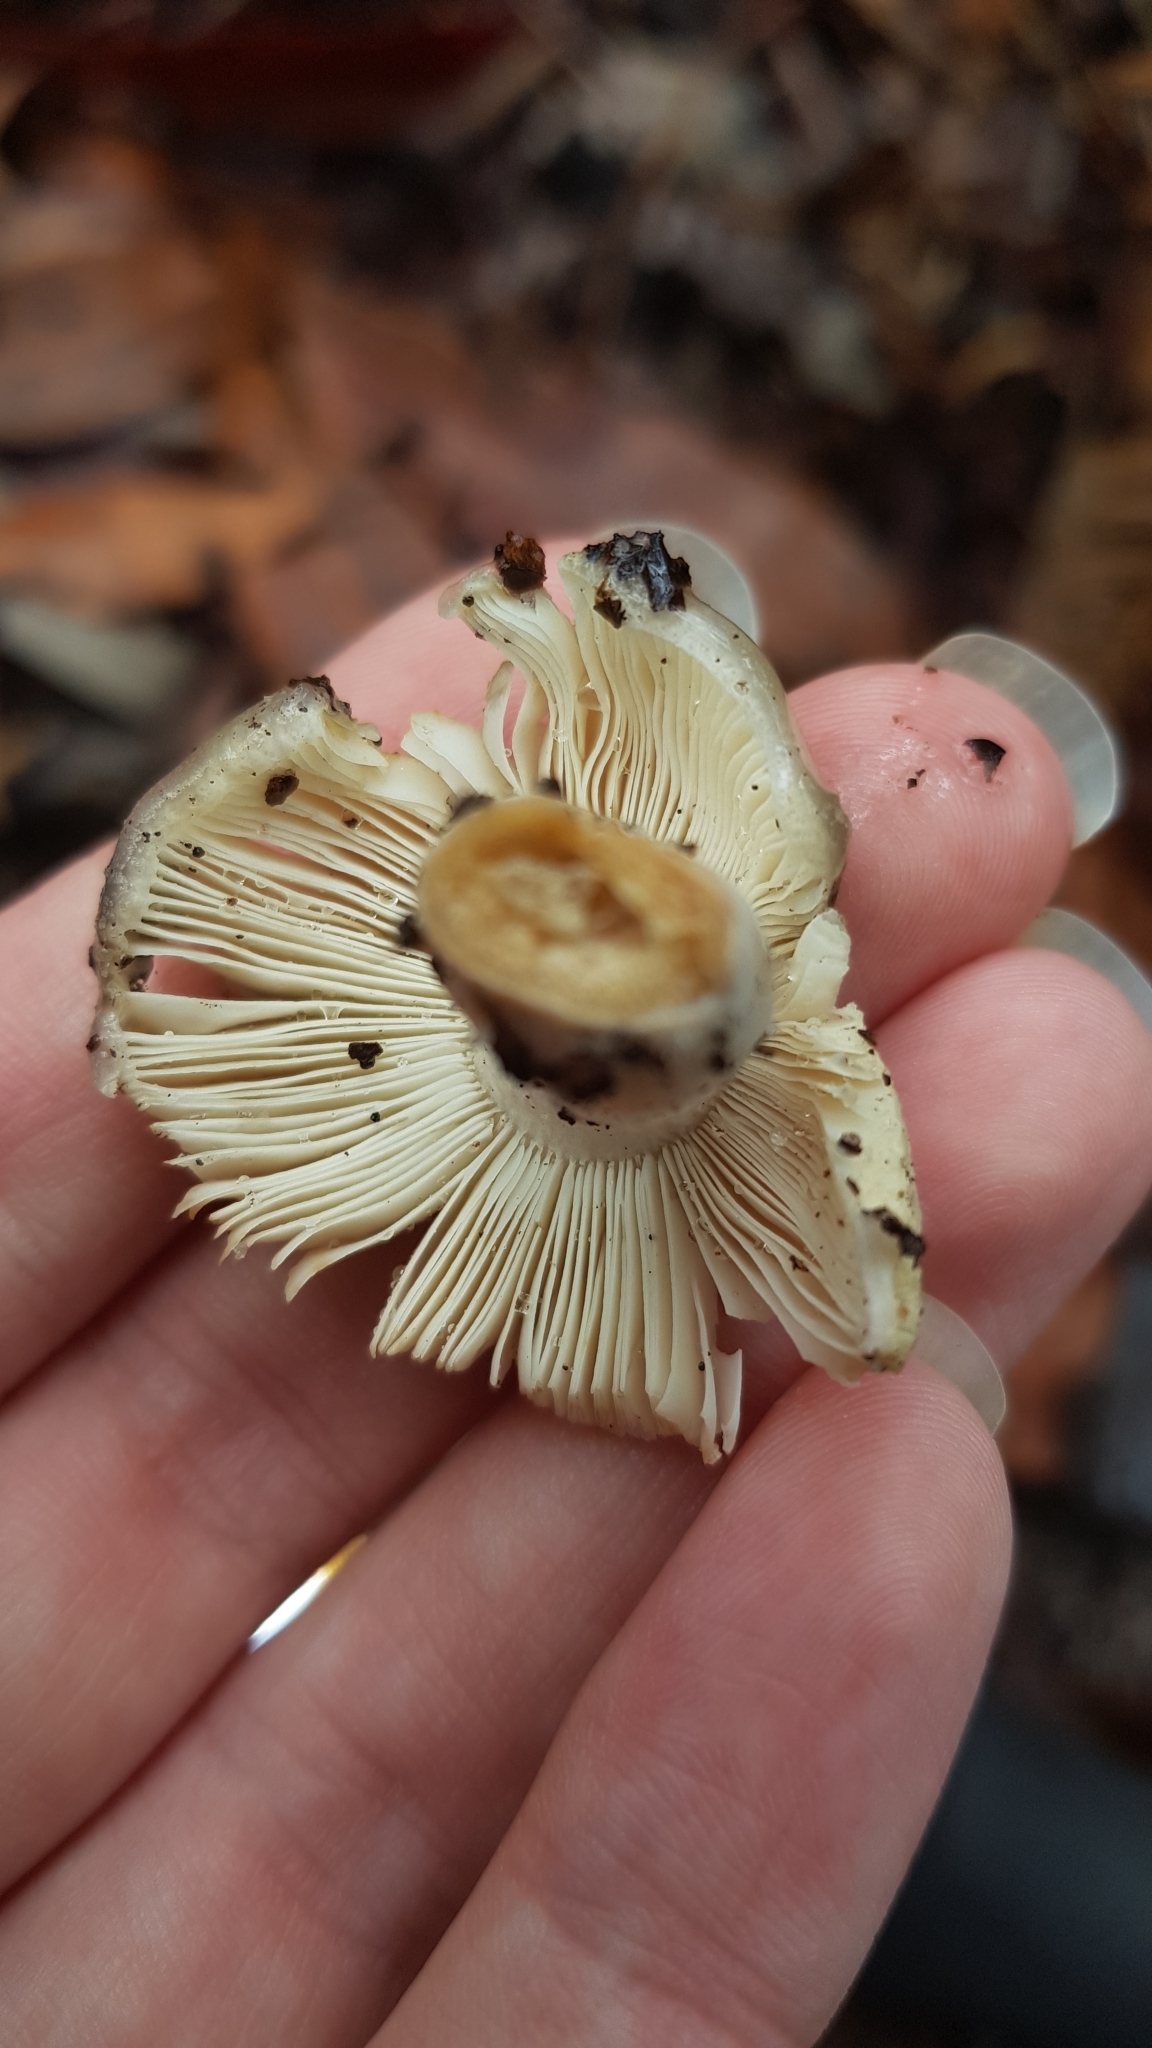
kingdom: Fungi
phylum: Basidiomycota
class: Agaricomycetes
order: Russulales
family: Russulaceae
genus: Russula
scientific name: Russula iterika
